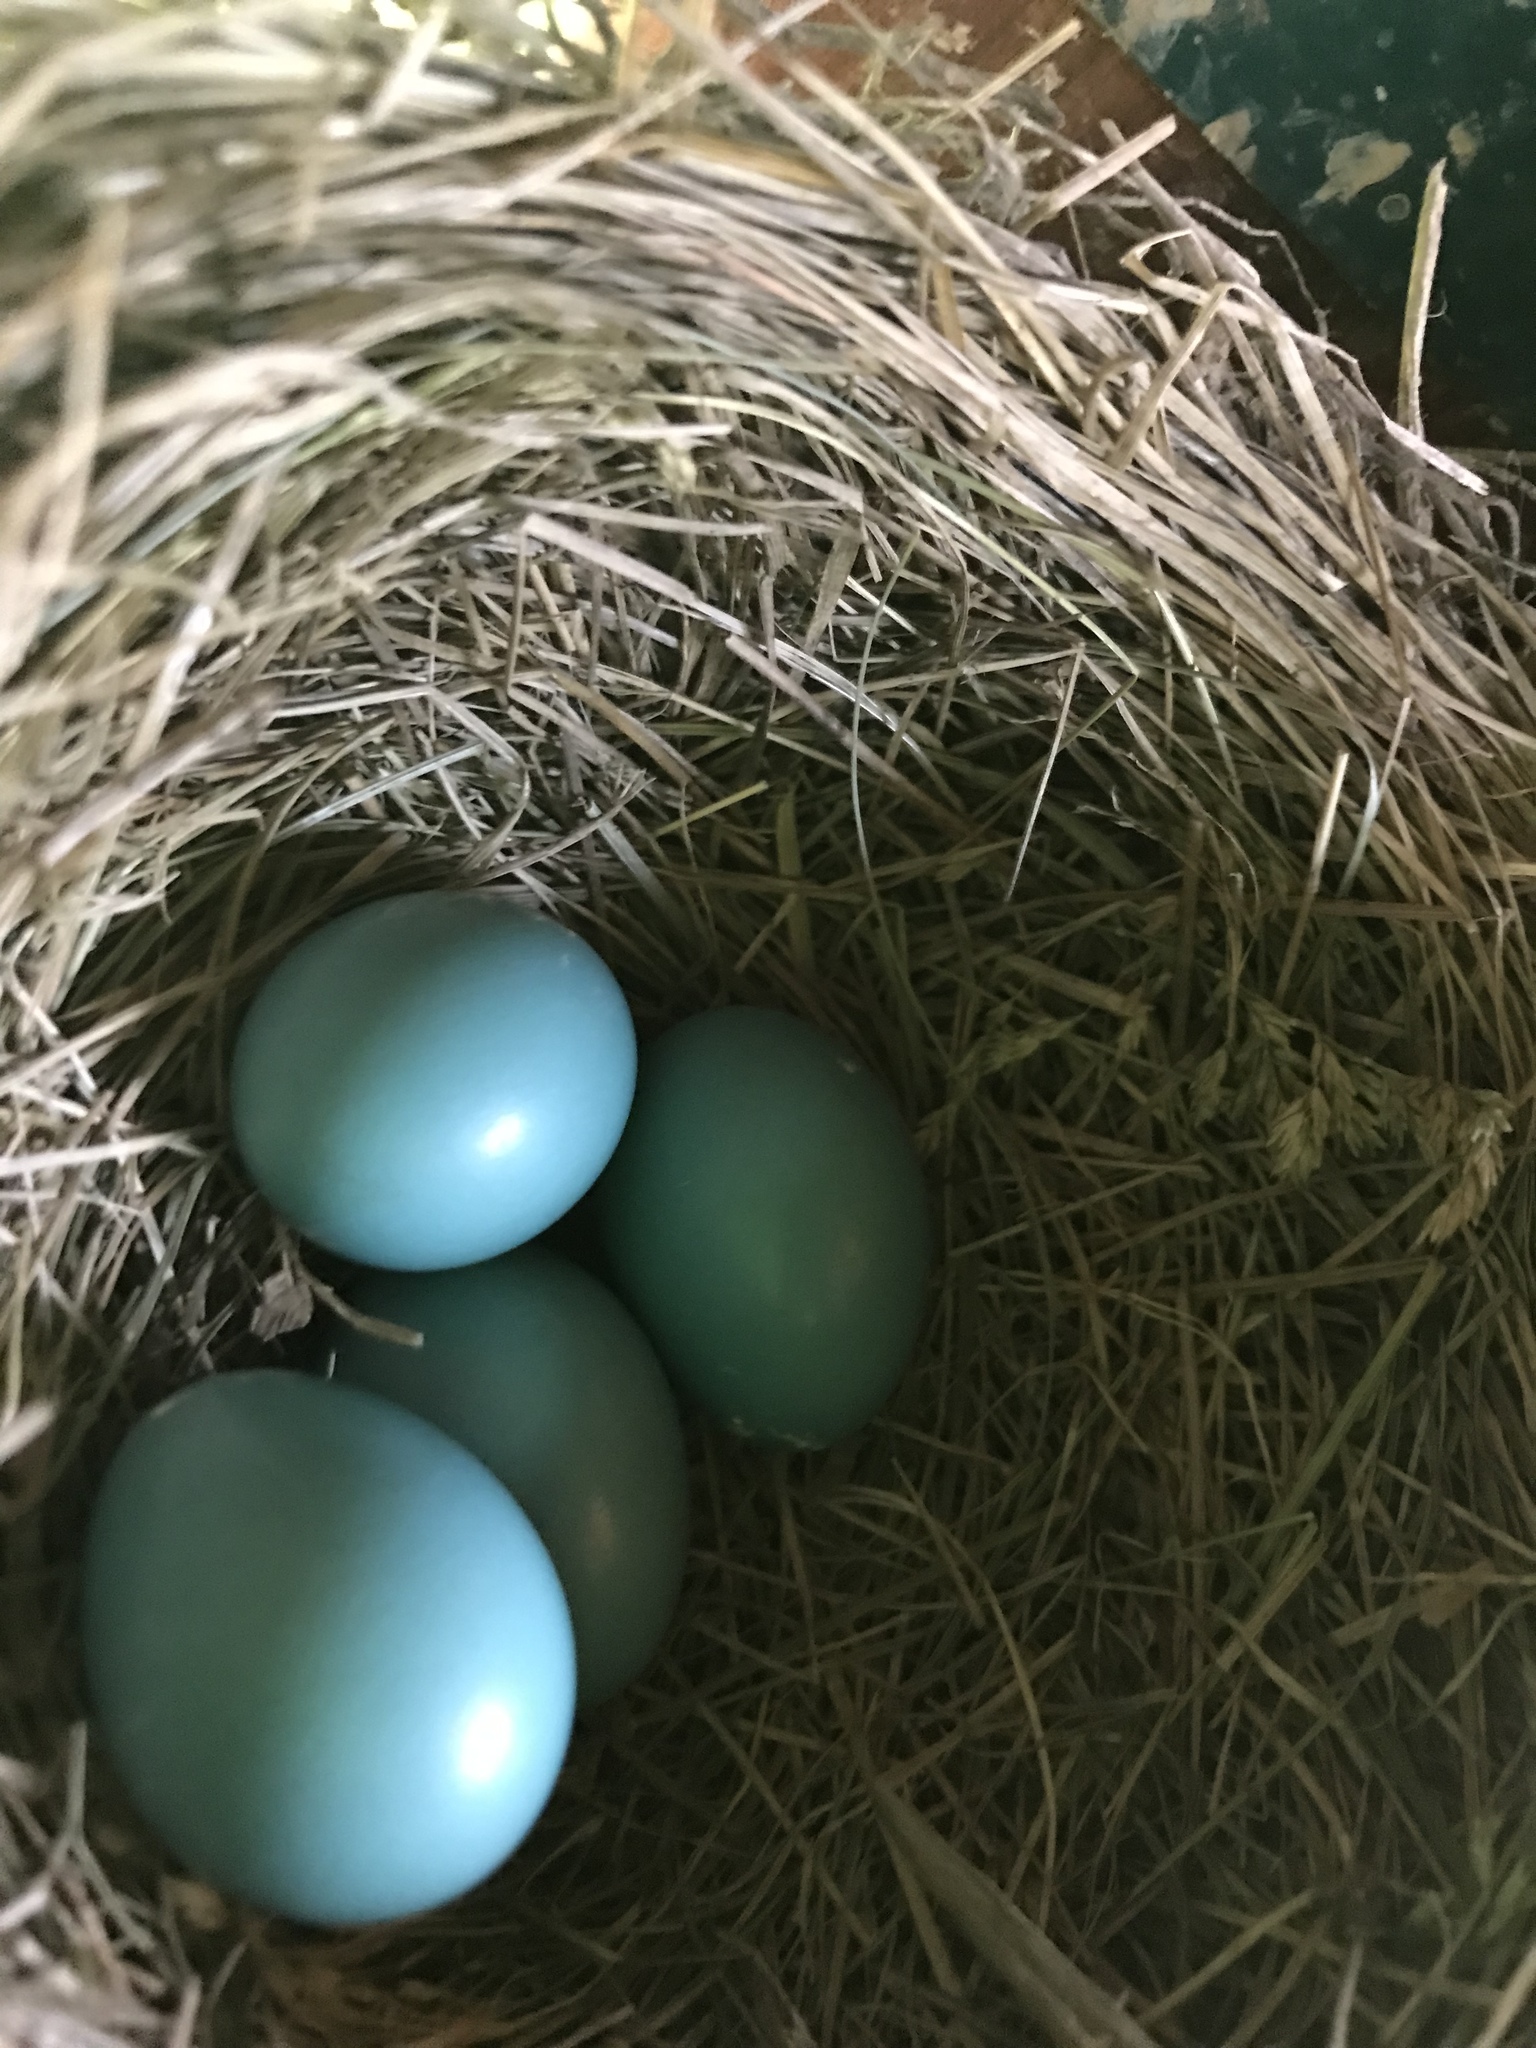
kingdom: Animalia
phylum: Chordata
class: Aves
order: Passeriformes
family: Turdidae
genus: Turdus
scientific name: Turdus migratorius
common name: American robin
